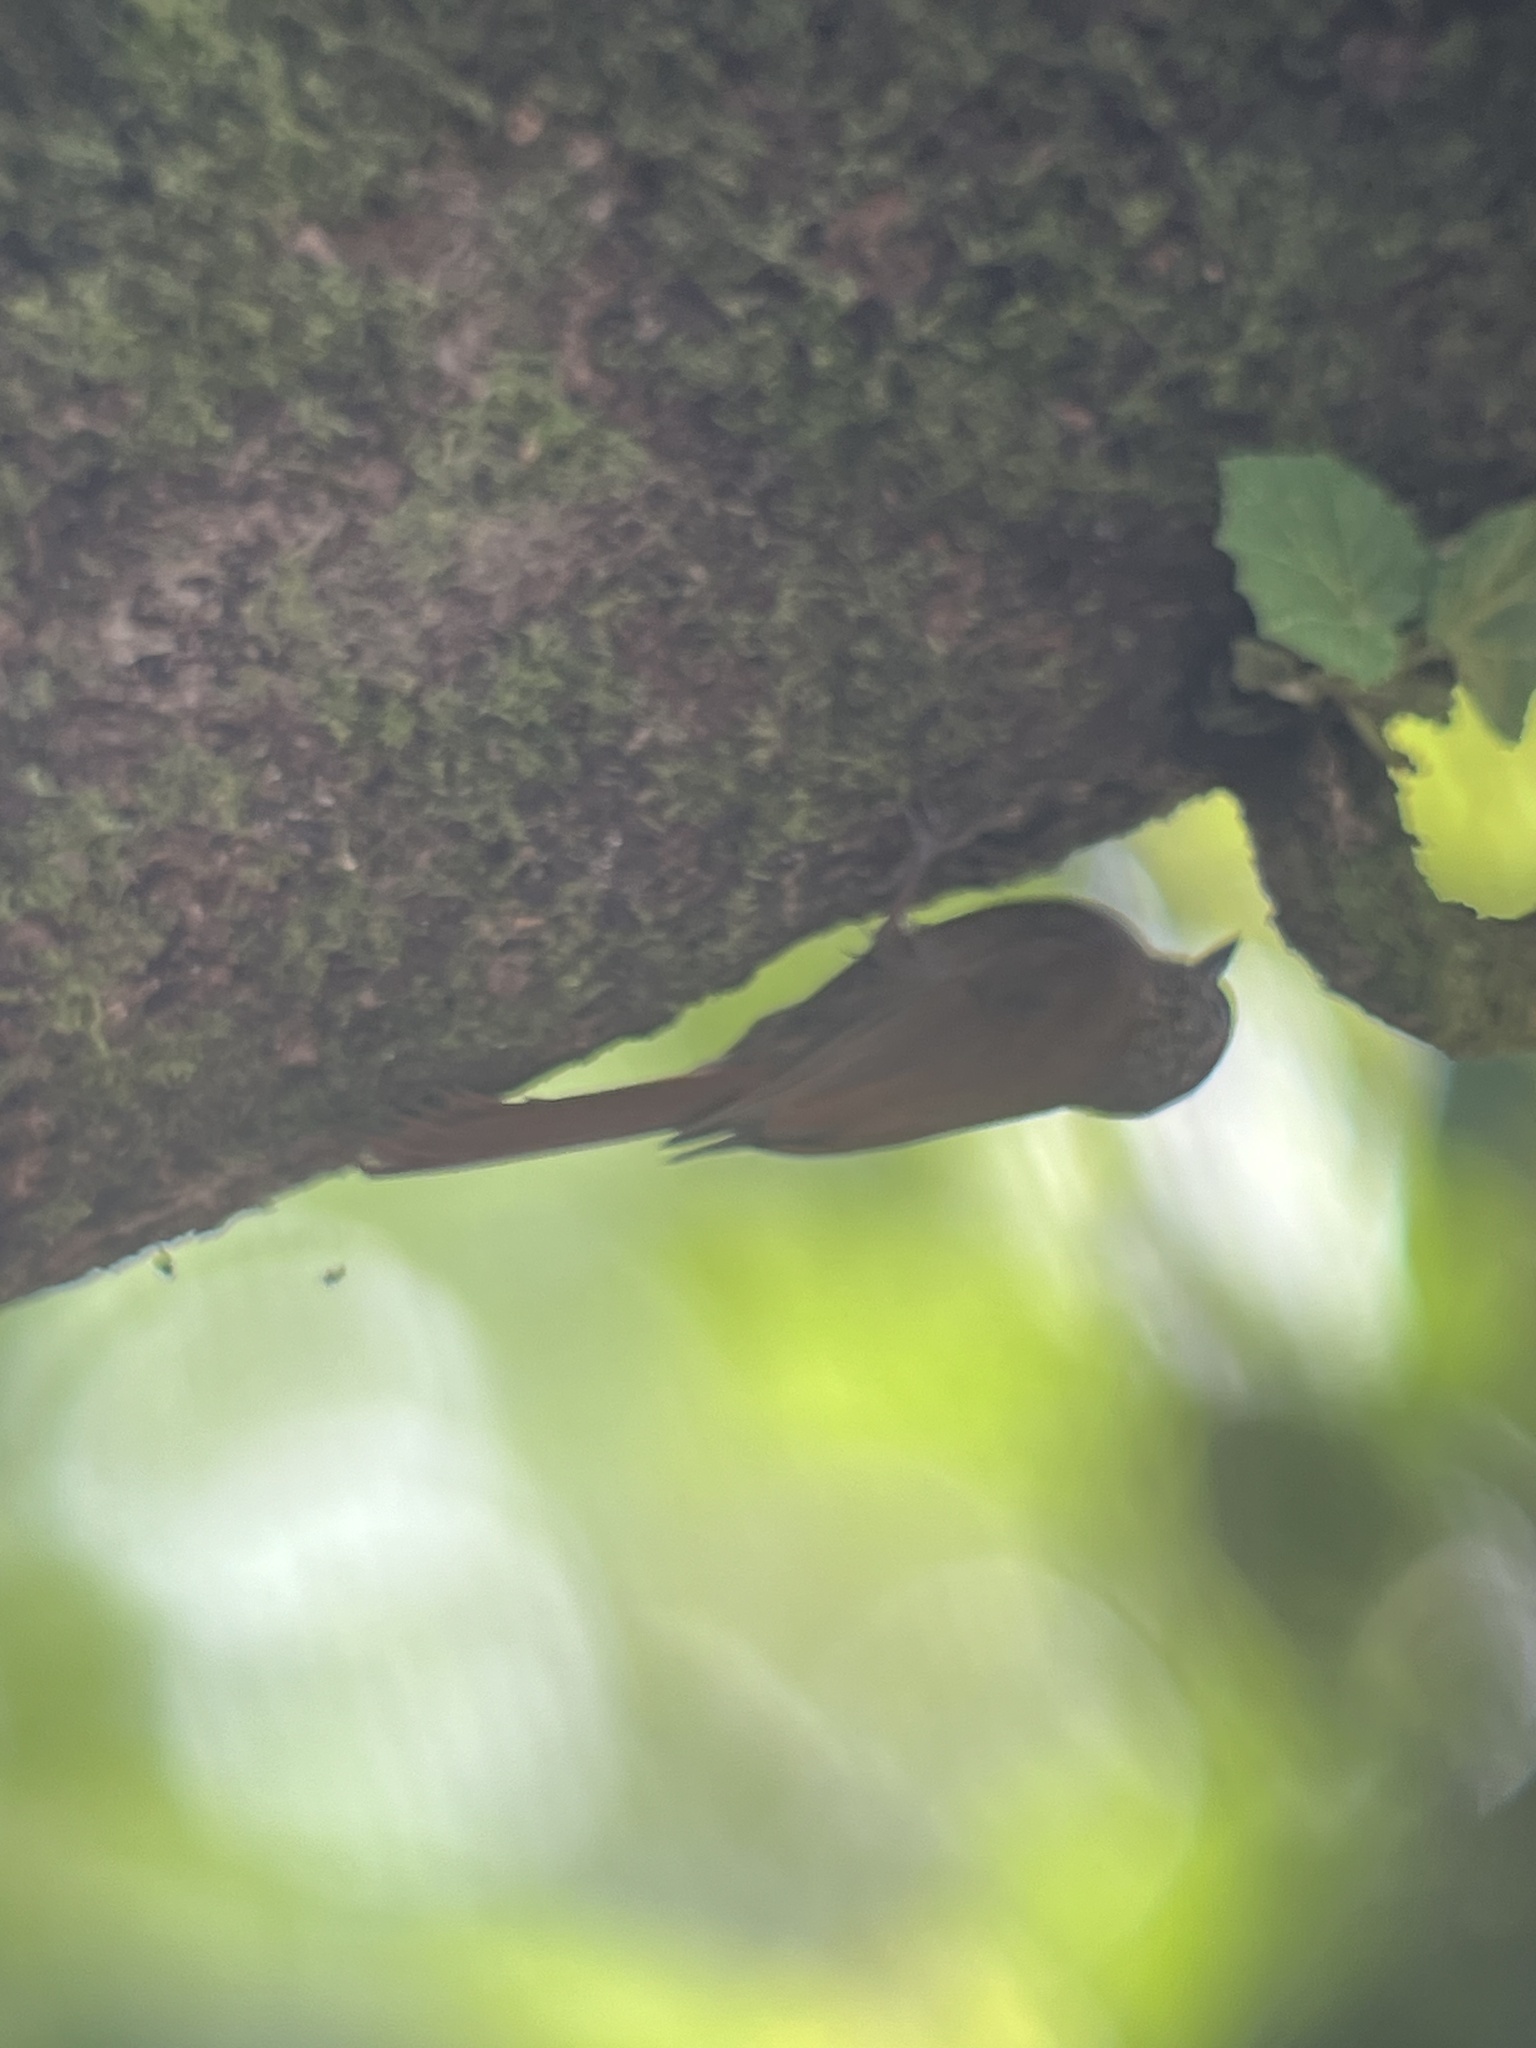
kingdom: Animalia
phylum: Chordata
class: Aves
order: Passeriformes
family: Furnariidae
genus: Glyphorynchus
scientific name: Glyphorynchus spirurus
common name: Wedge-billed woodcreeper
